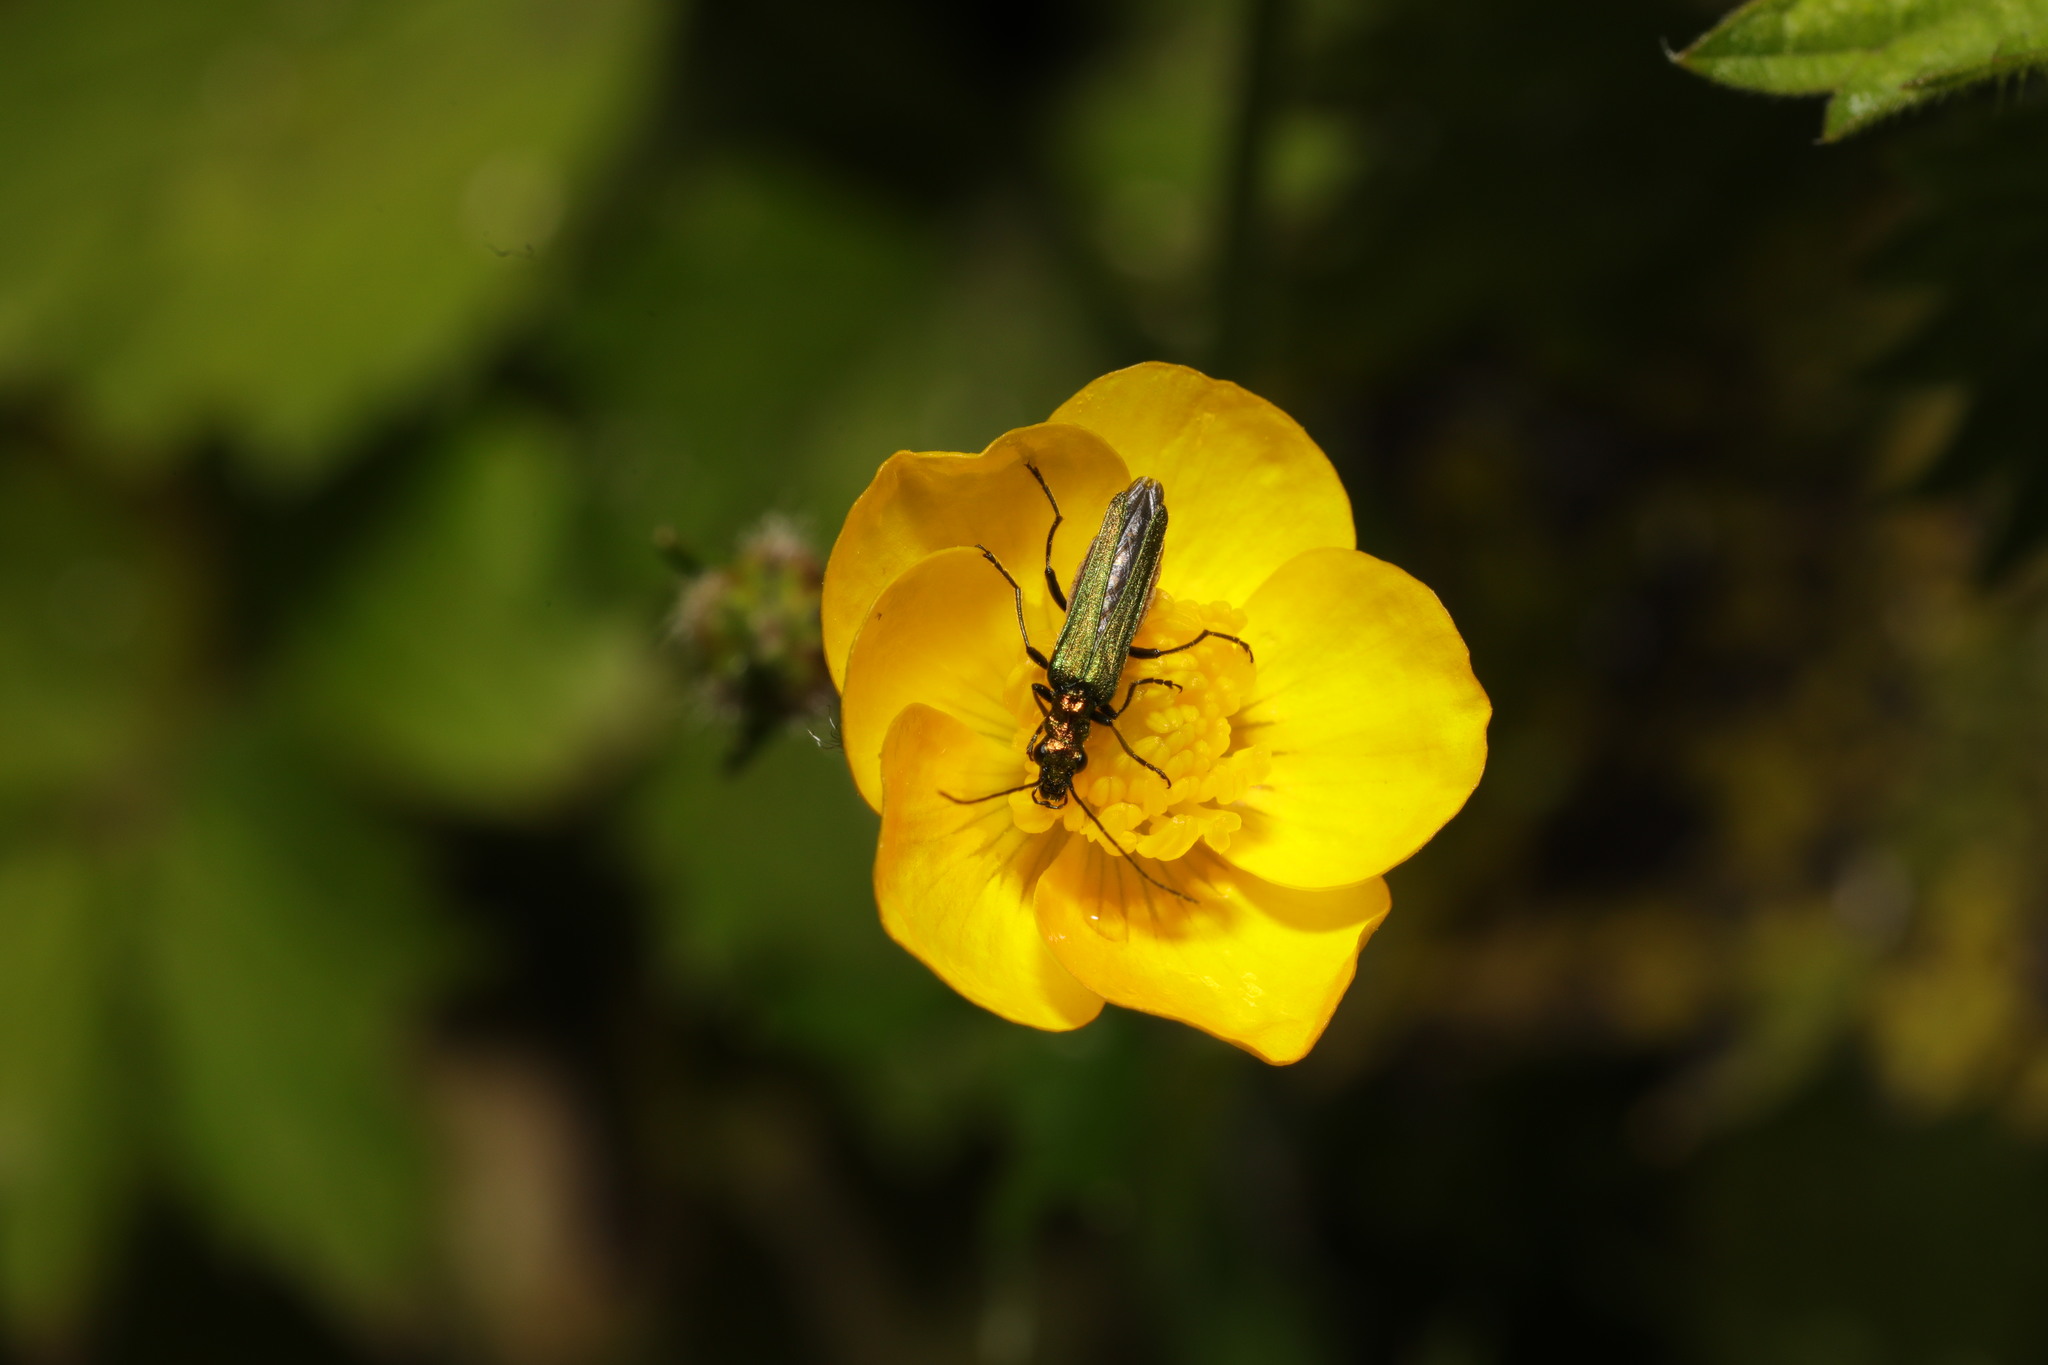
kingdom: Animalia
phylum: Arthropoda
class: Insecta
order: Coleoptera
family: Oedemeridae
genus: Oedemera
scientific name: Oedemera nobilis
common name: Swollen-thighed beetle
